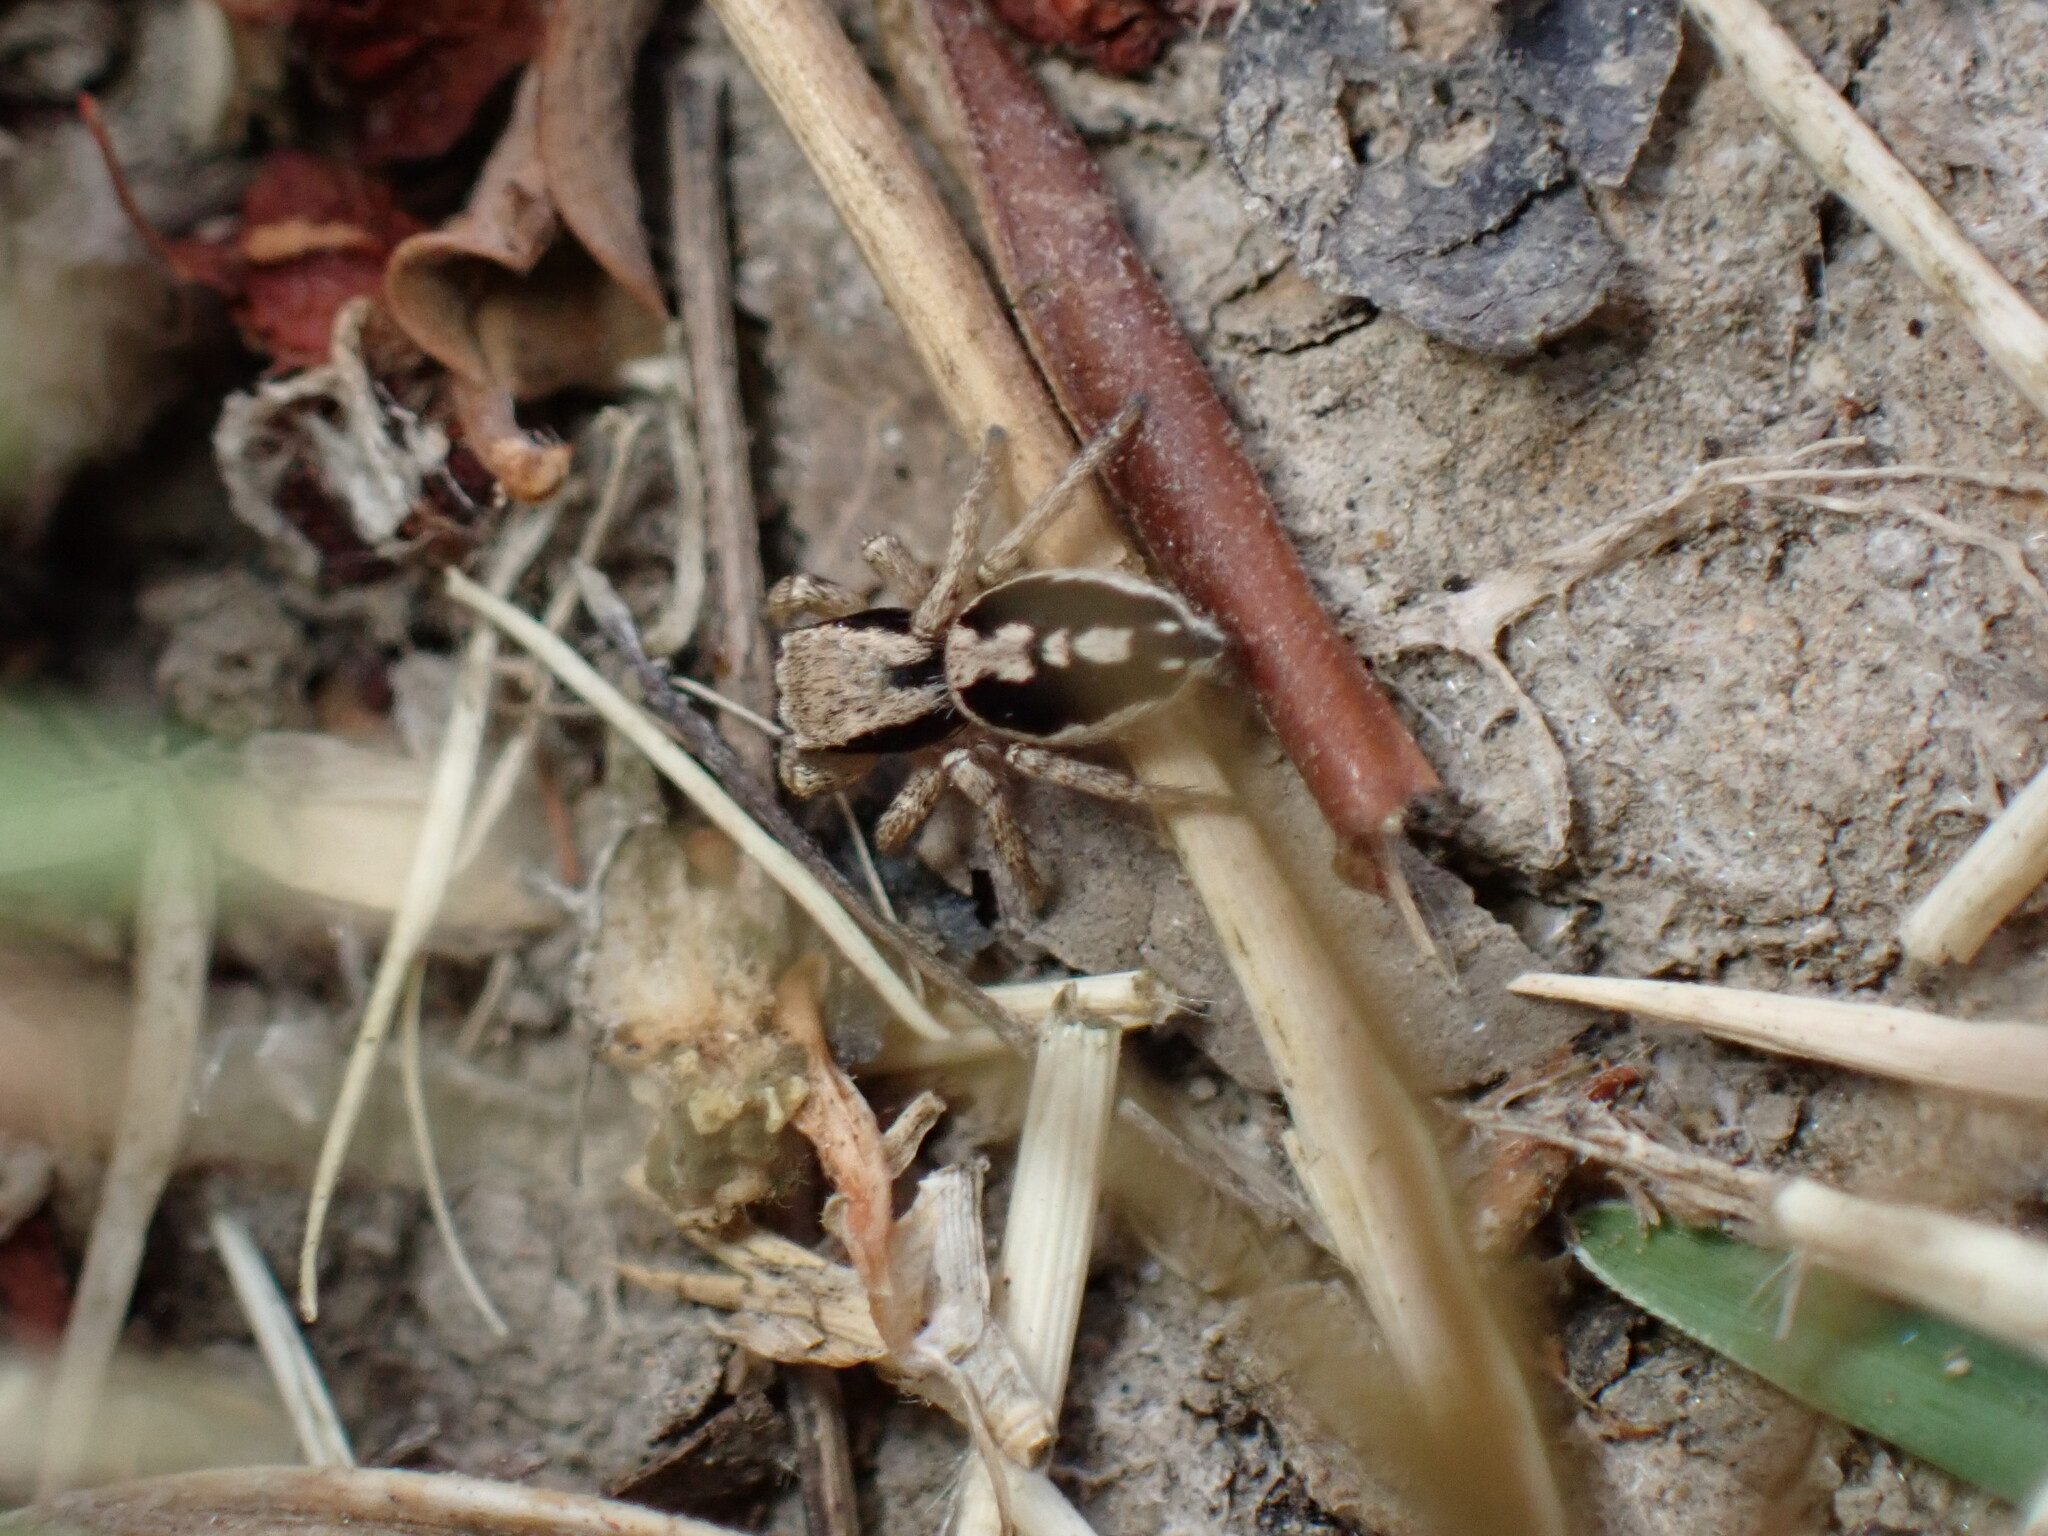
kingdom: Animalia
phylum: Arthropoda
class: Arachnida
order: Araneae
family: Salticidae
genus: Habronattus
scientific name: Habronattus pyrrithrix
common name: Jumping spider
